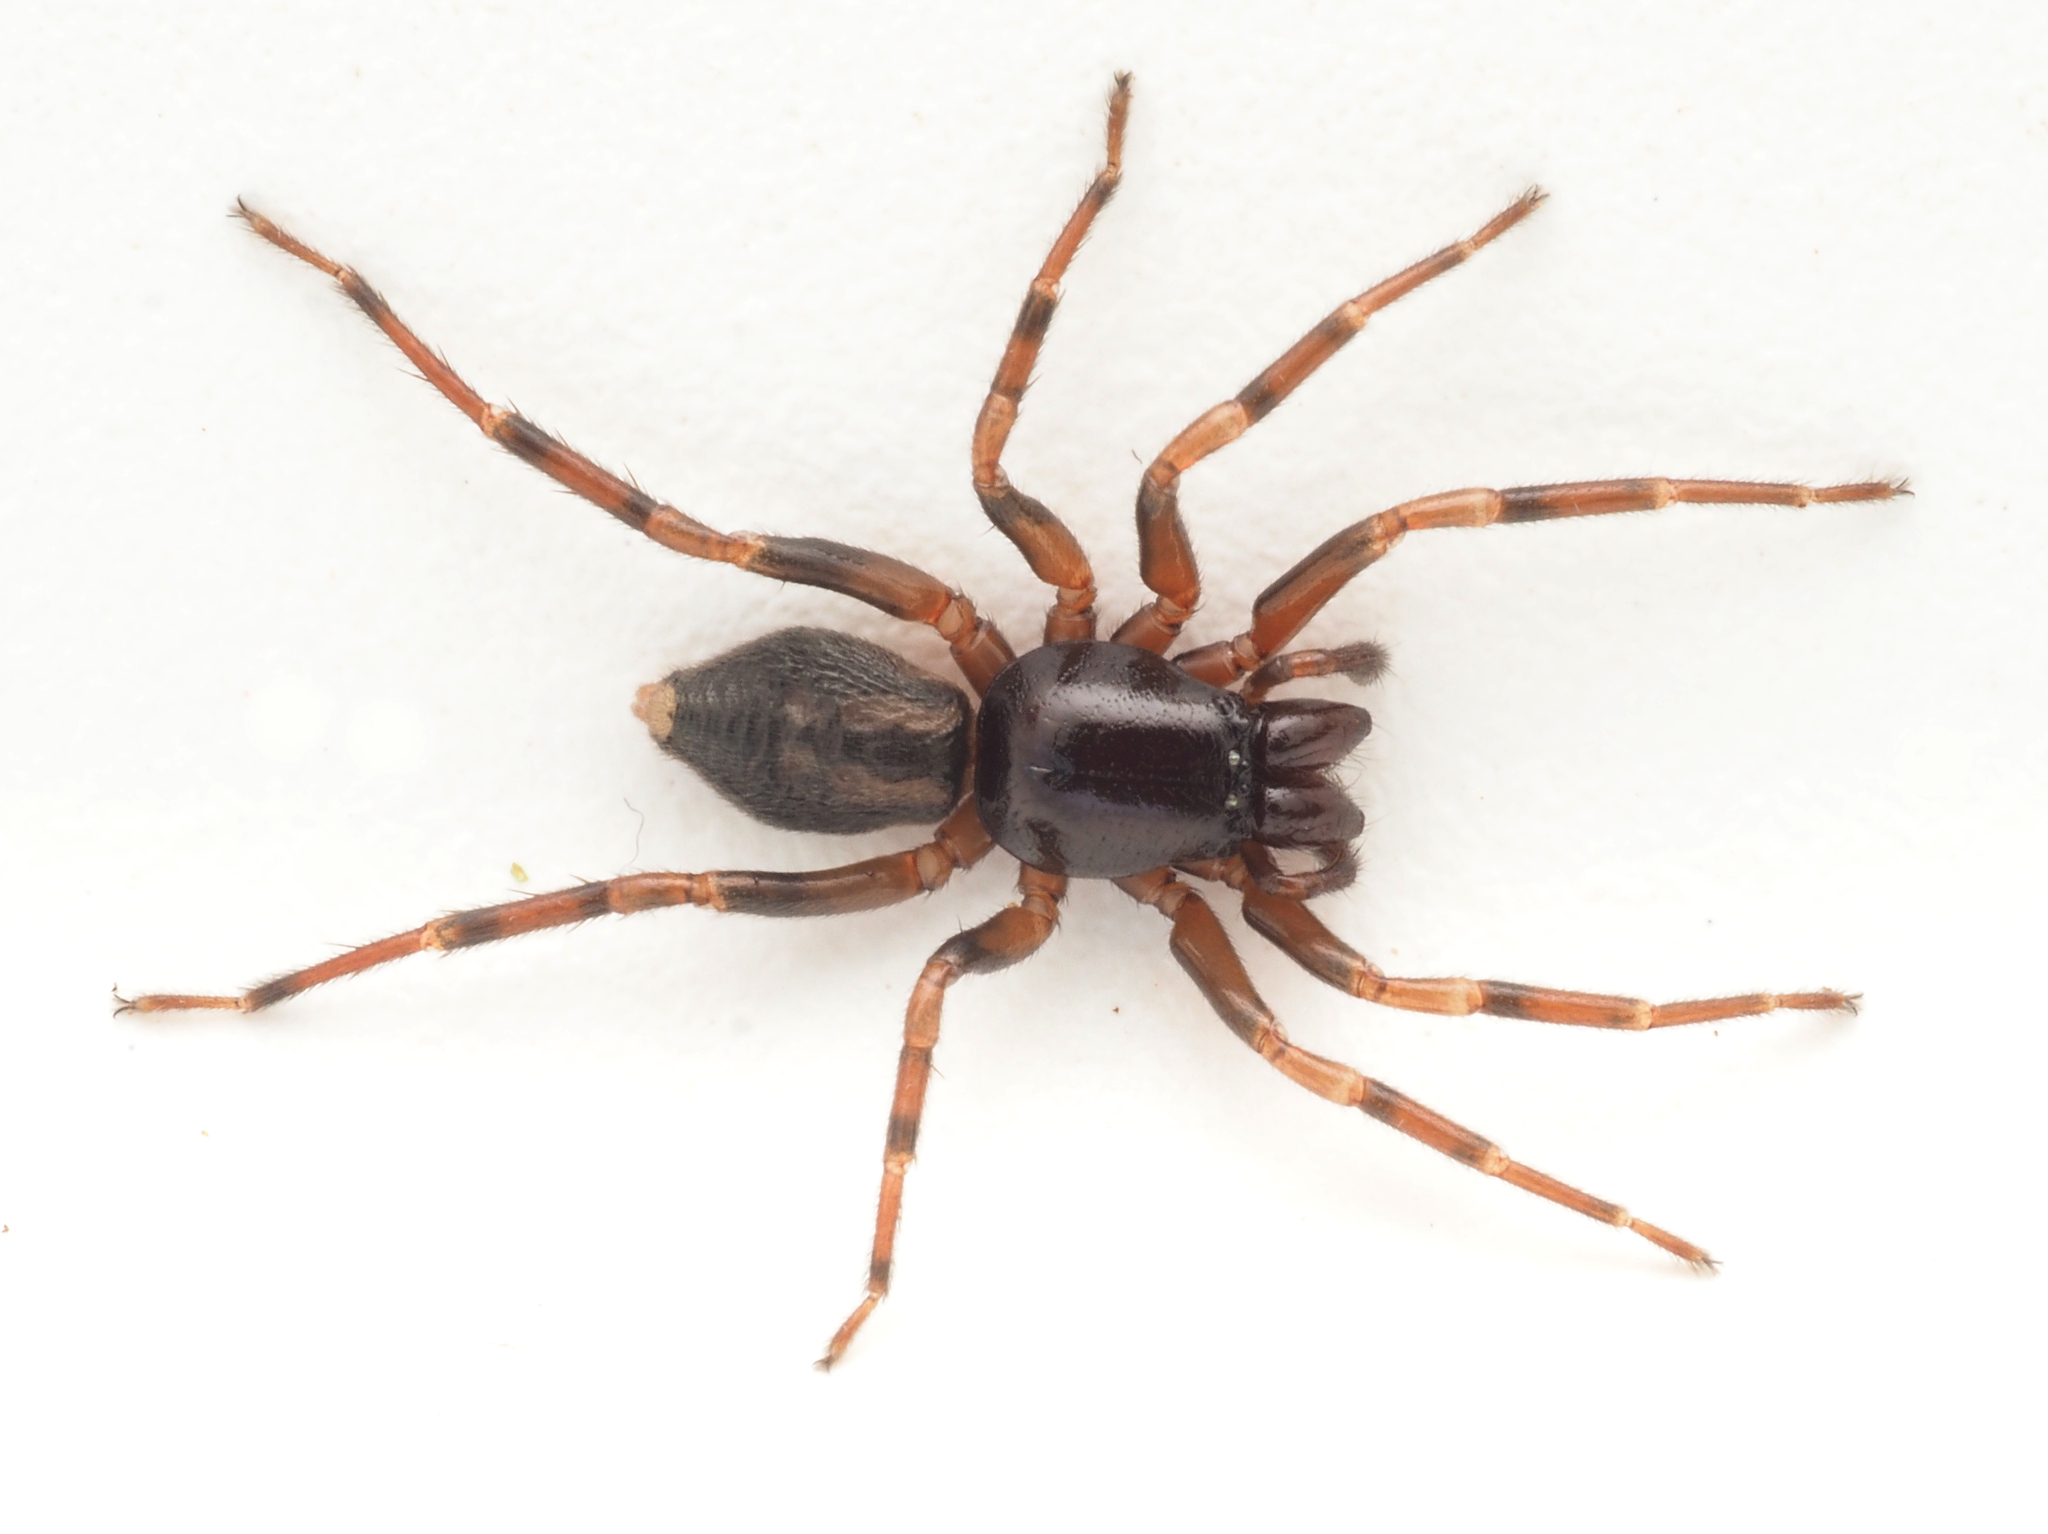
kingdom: Animalia
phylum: Arthropoda
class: Arachnida
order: Araneae
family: Trachycosmidae
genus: Desognaphosa
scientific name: Desognaphosa yabbra
